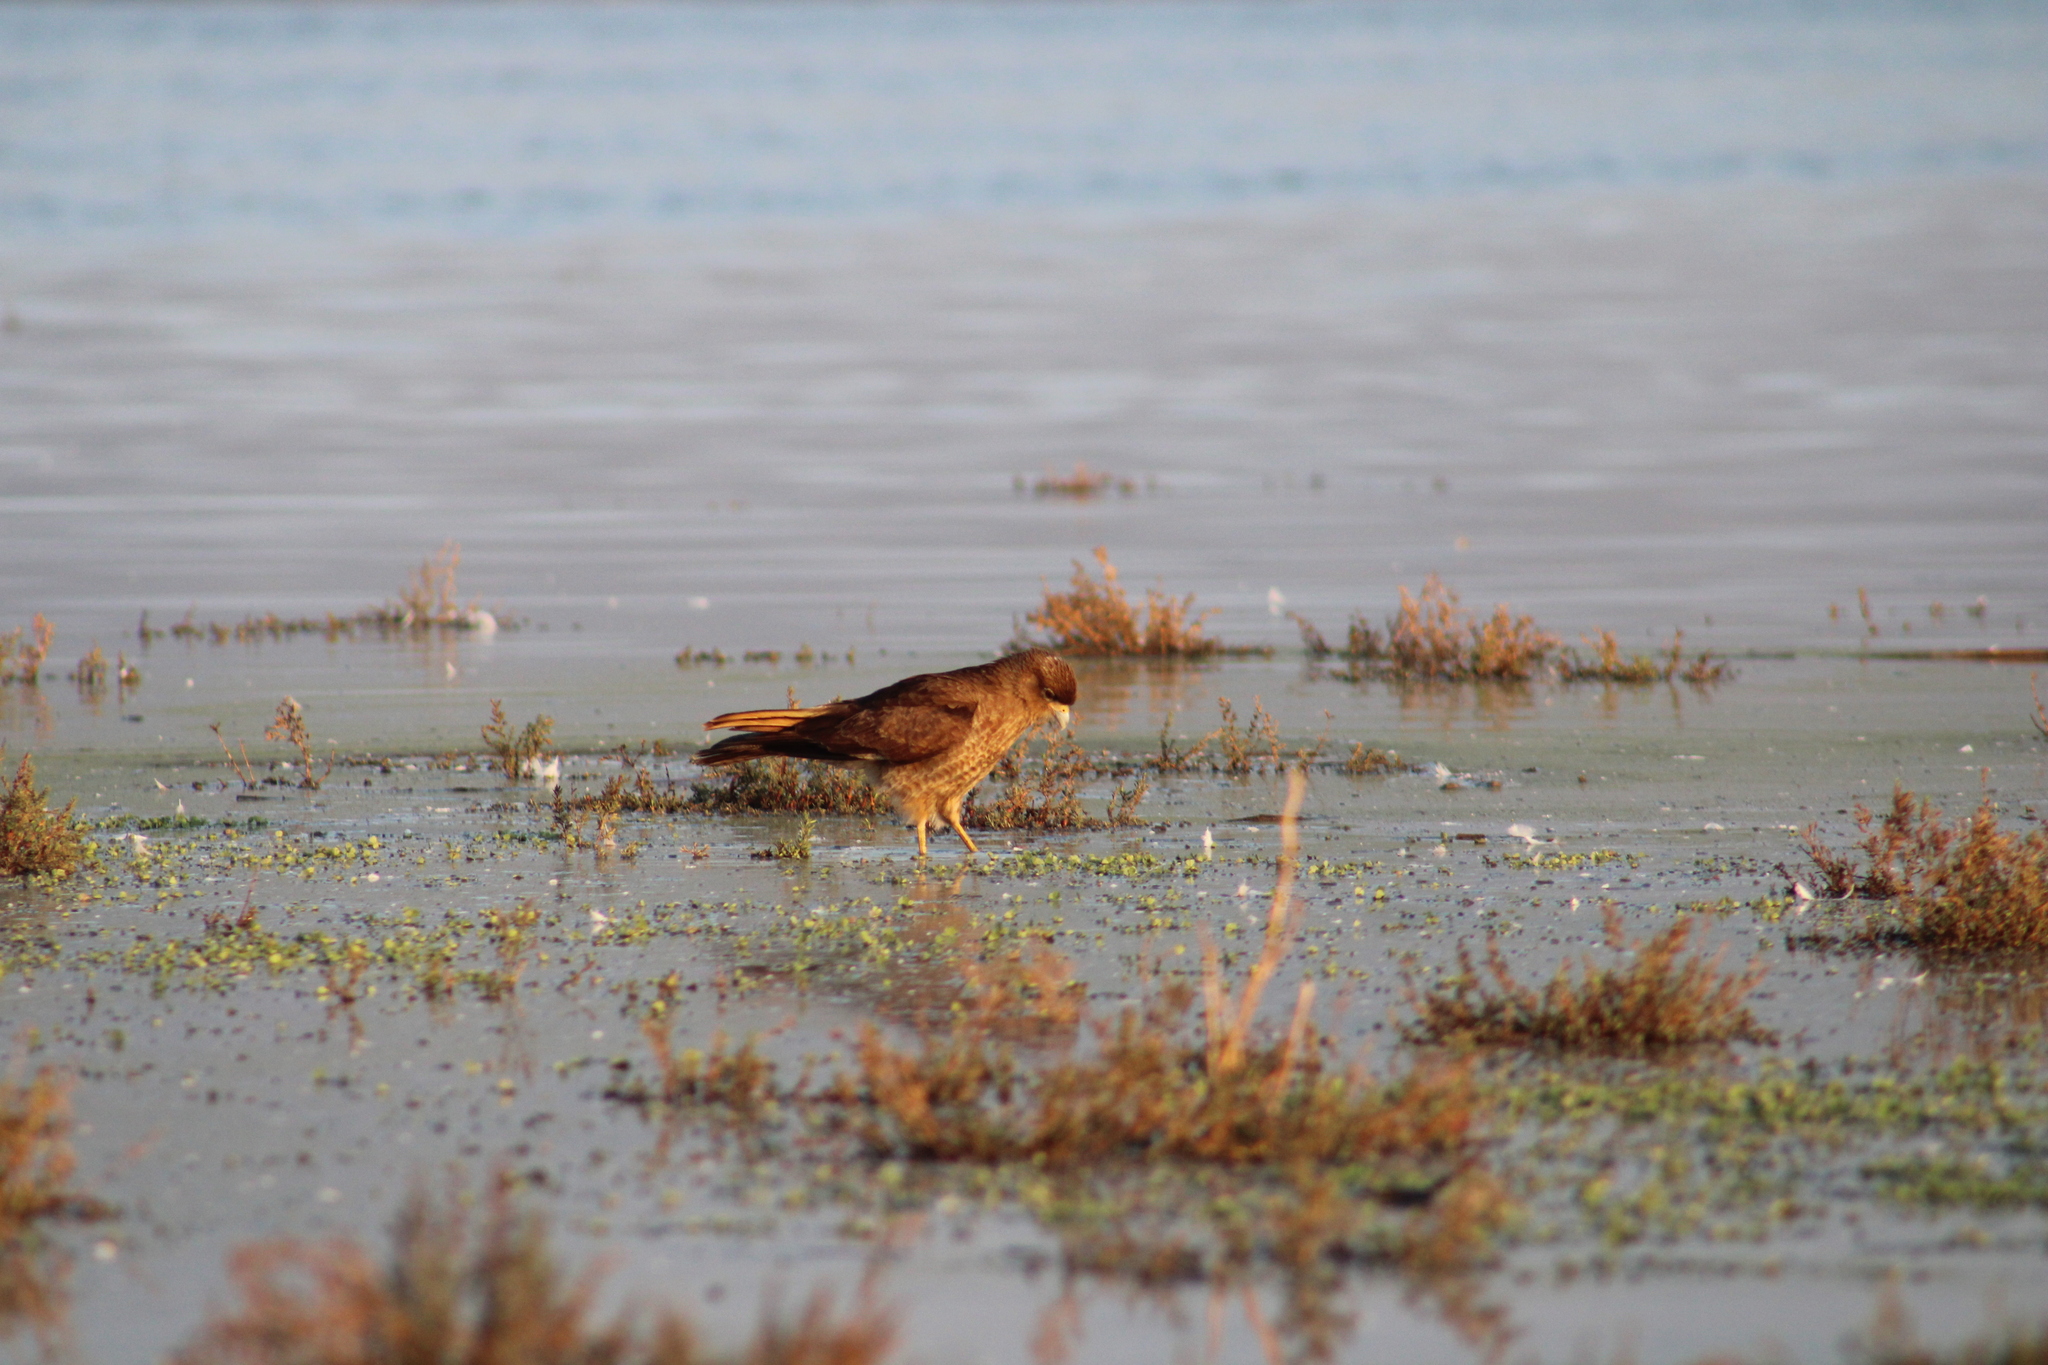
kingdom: Animalia
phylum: Chordata
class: Aves
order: Falconiformes
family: Falconidae
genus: Daptrius
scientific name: Daptrius
